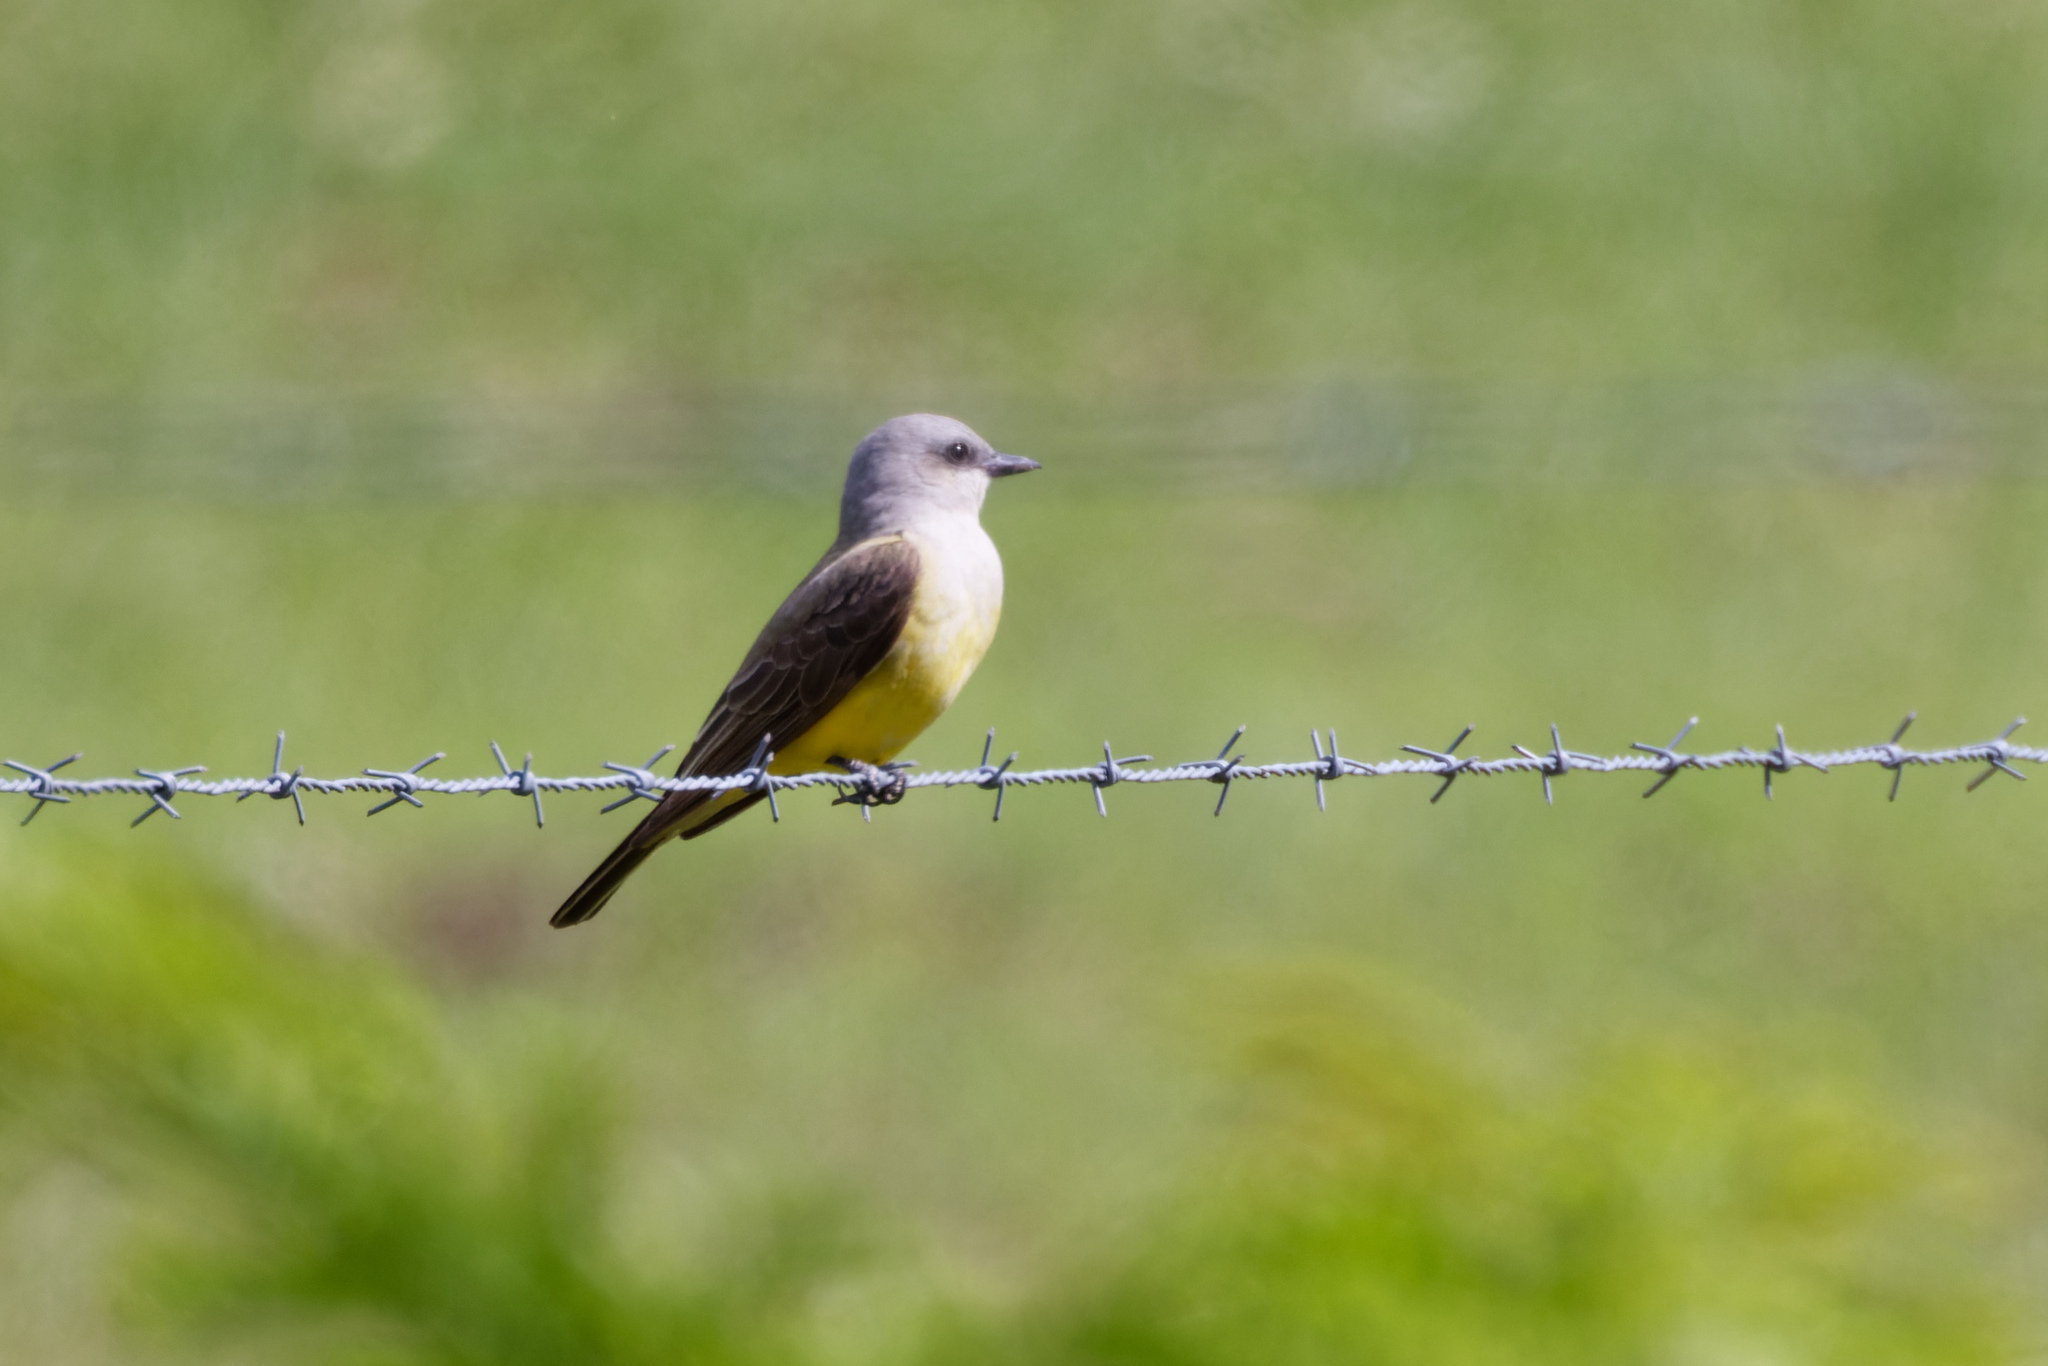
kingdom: Animalia
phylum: Chordata
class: Aves
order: Passeriformes
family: Tyrannidae
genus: Tyrannus
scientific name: Tyrannus verticalis
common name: Western kingbird
